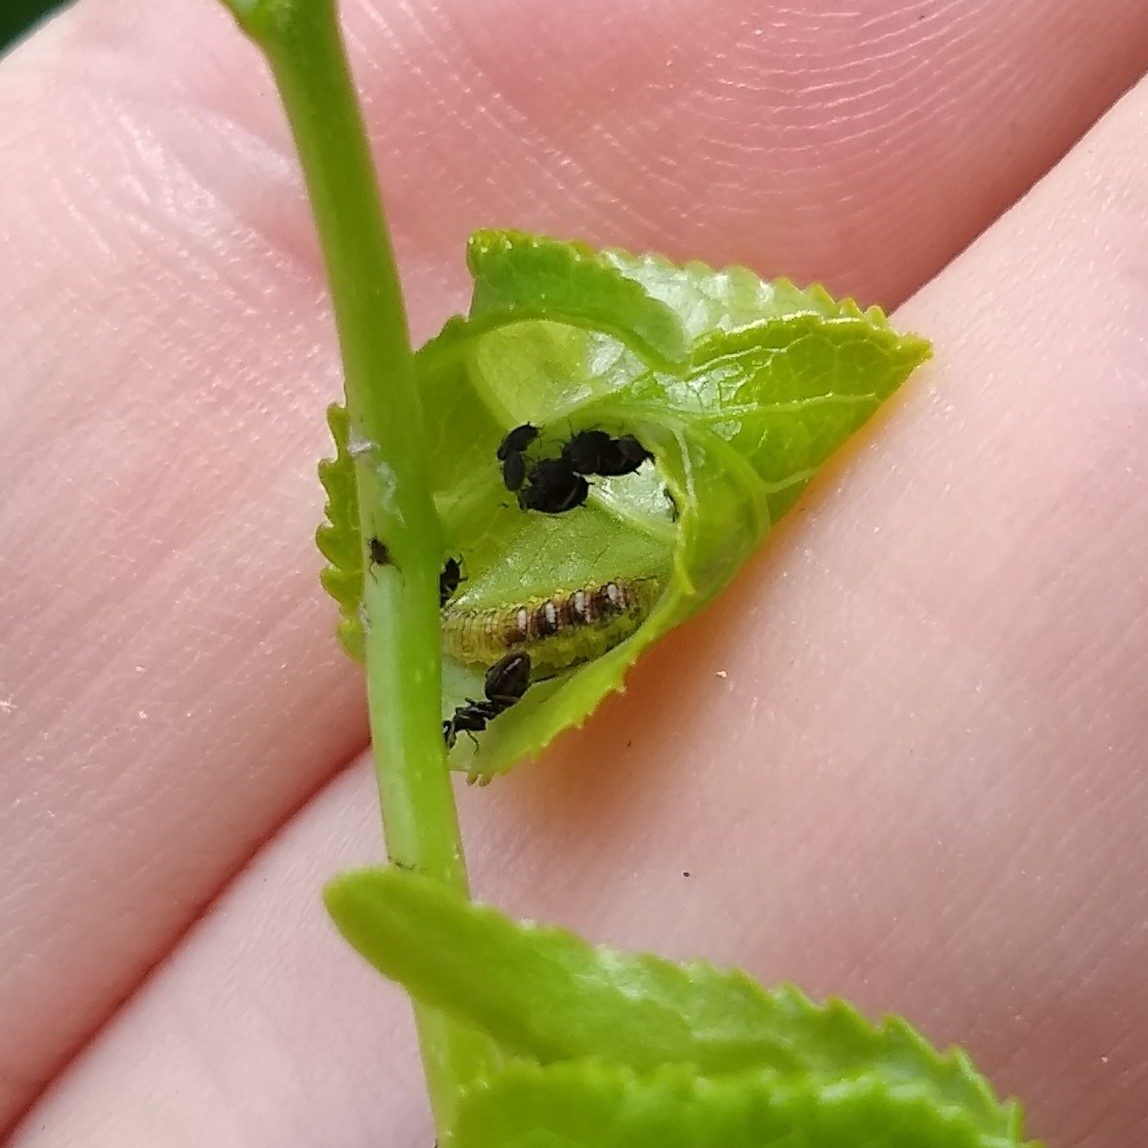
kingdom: Animalia
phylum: Arthropoda
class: Insecta
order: Diptera
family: Syrphidae
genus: Eupeodes
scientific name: Eupeodes pomus
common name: Short-tailed aphideater
